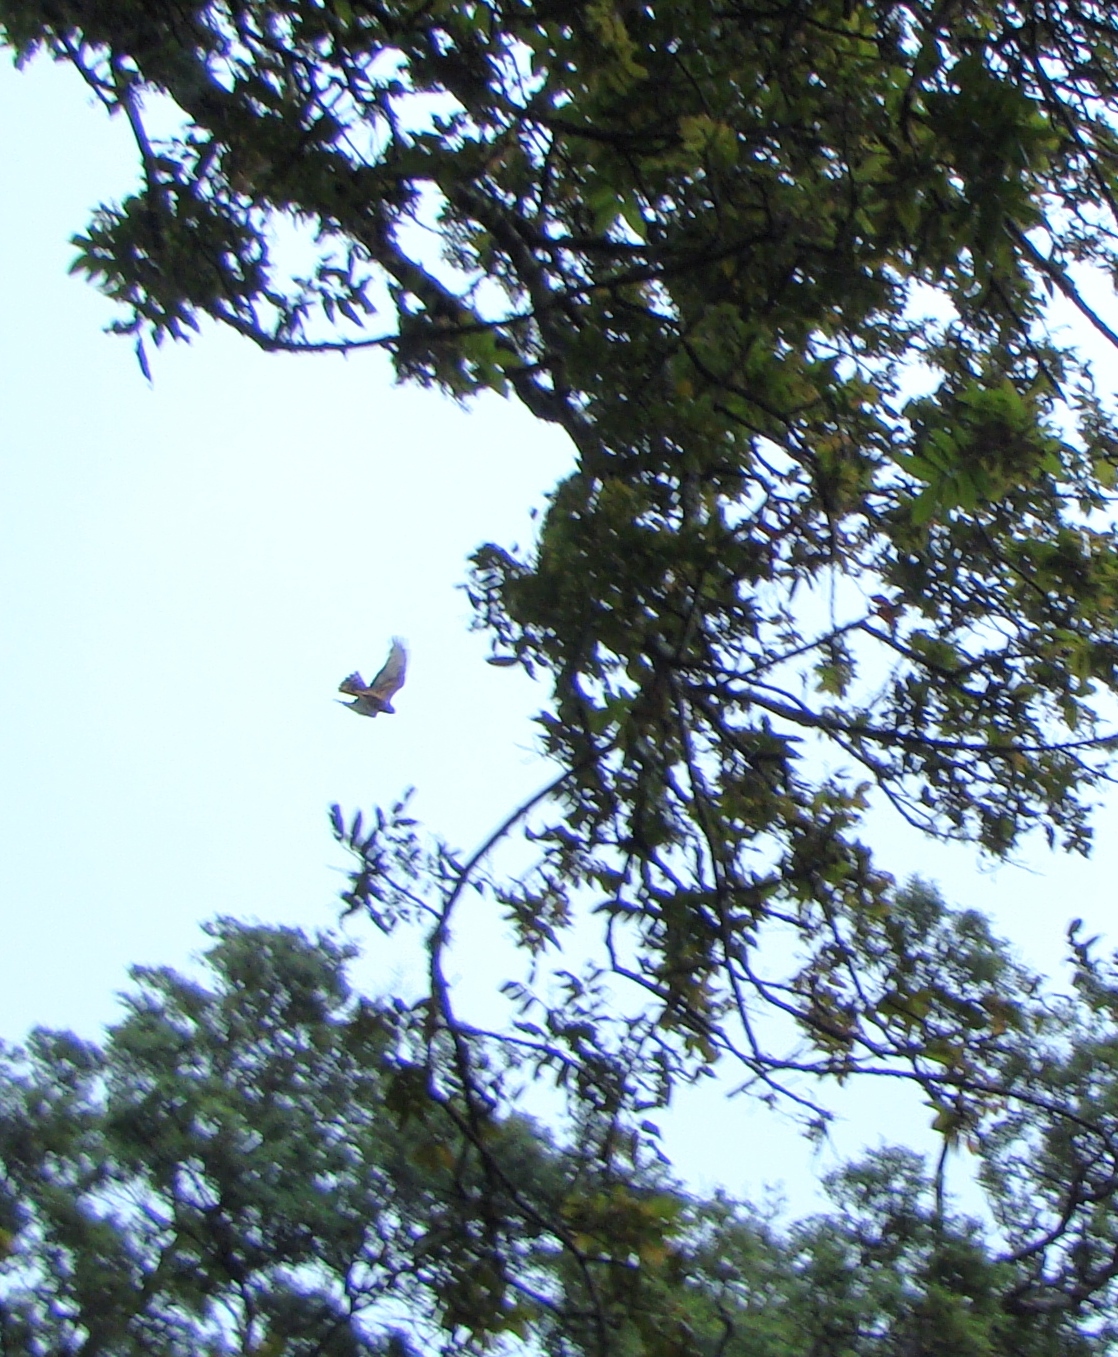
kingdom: Animalia
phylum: Chordata
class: Aves
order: Accipitriformes
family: Accipitridae
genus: Circus
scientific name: Circus approximans
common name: Swamp harrier
